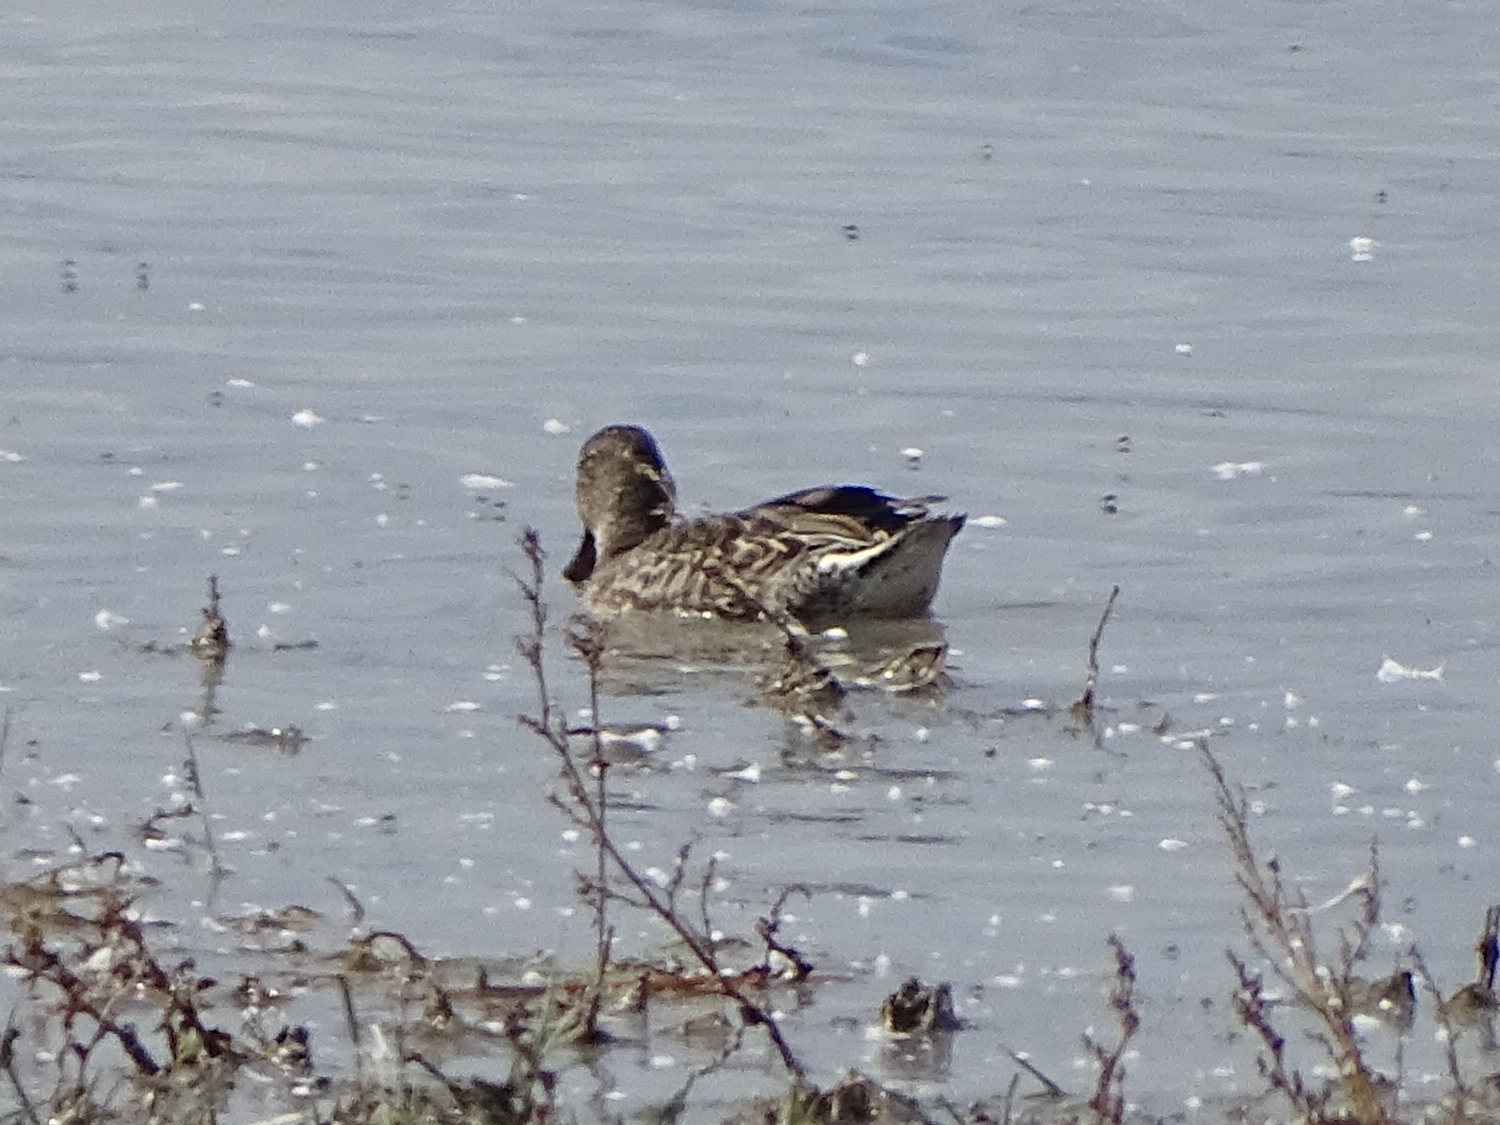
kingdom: Animalia
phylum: Chordata
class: Aves
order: Anseriformes
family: Anatidae
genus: Anas
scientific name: Anas crecca
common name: Eurasian teal
